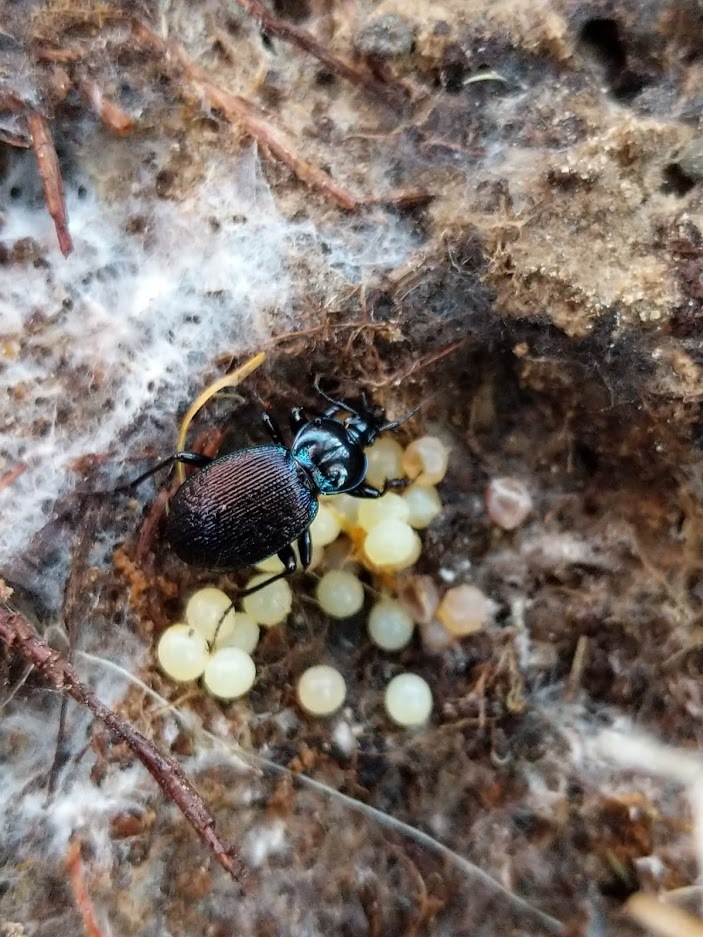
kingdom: Animalia
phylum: Arthropoda
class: Insecta
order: Coleoptera
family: Carabidae
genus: Sphaeroderus
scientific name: Sphaeroderus stenostomus
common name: Small snail-eating ground beetle
